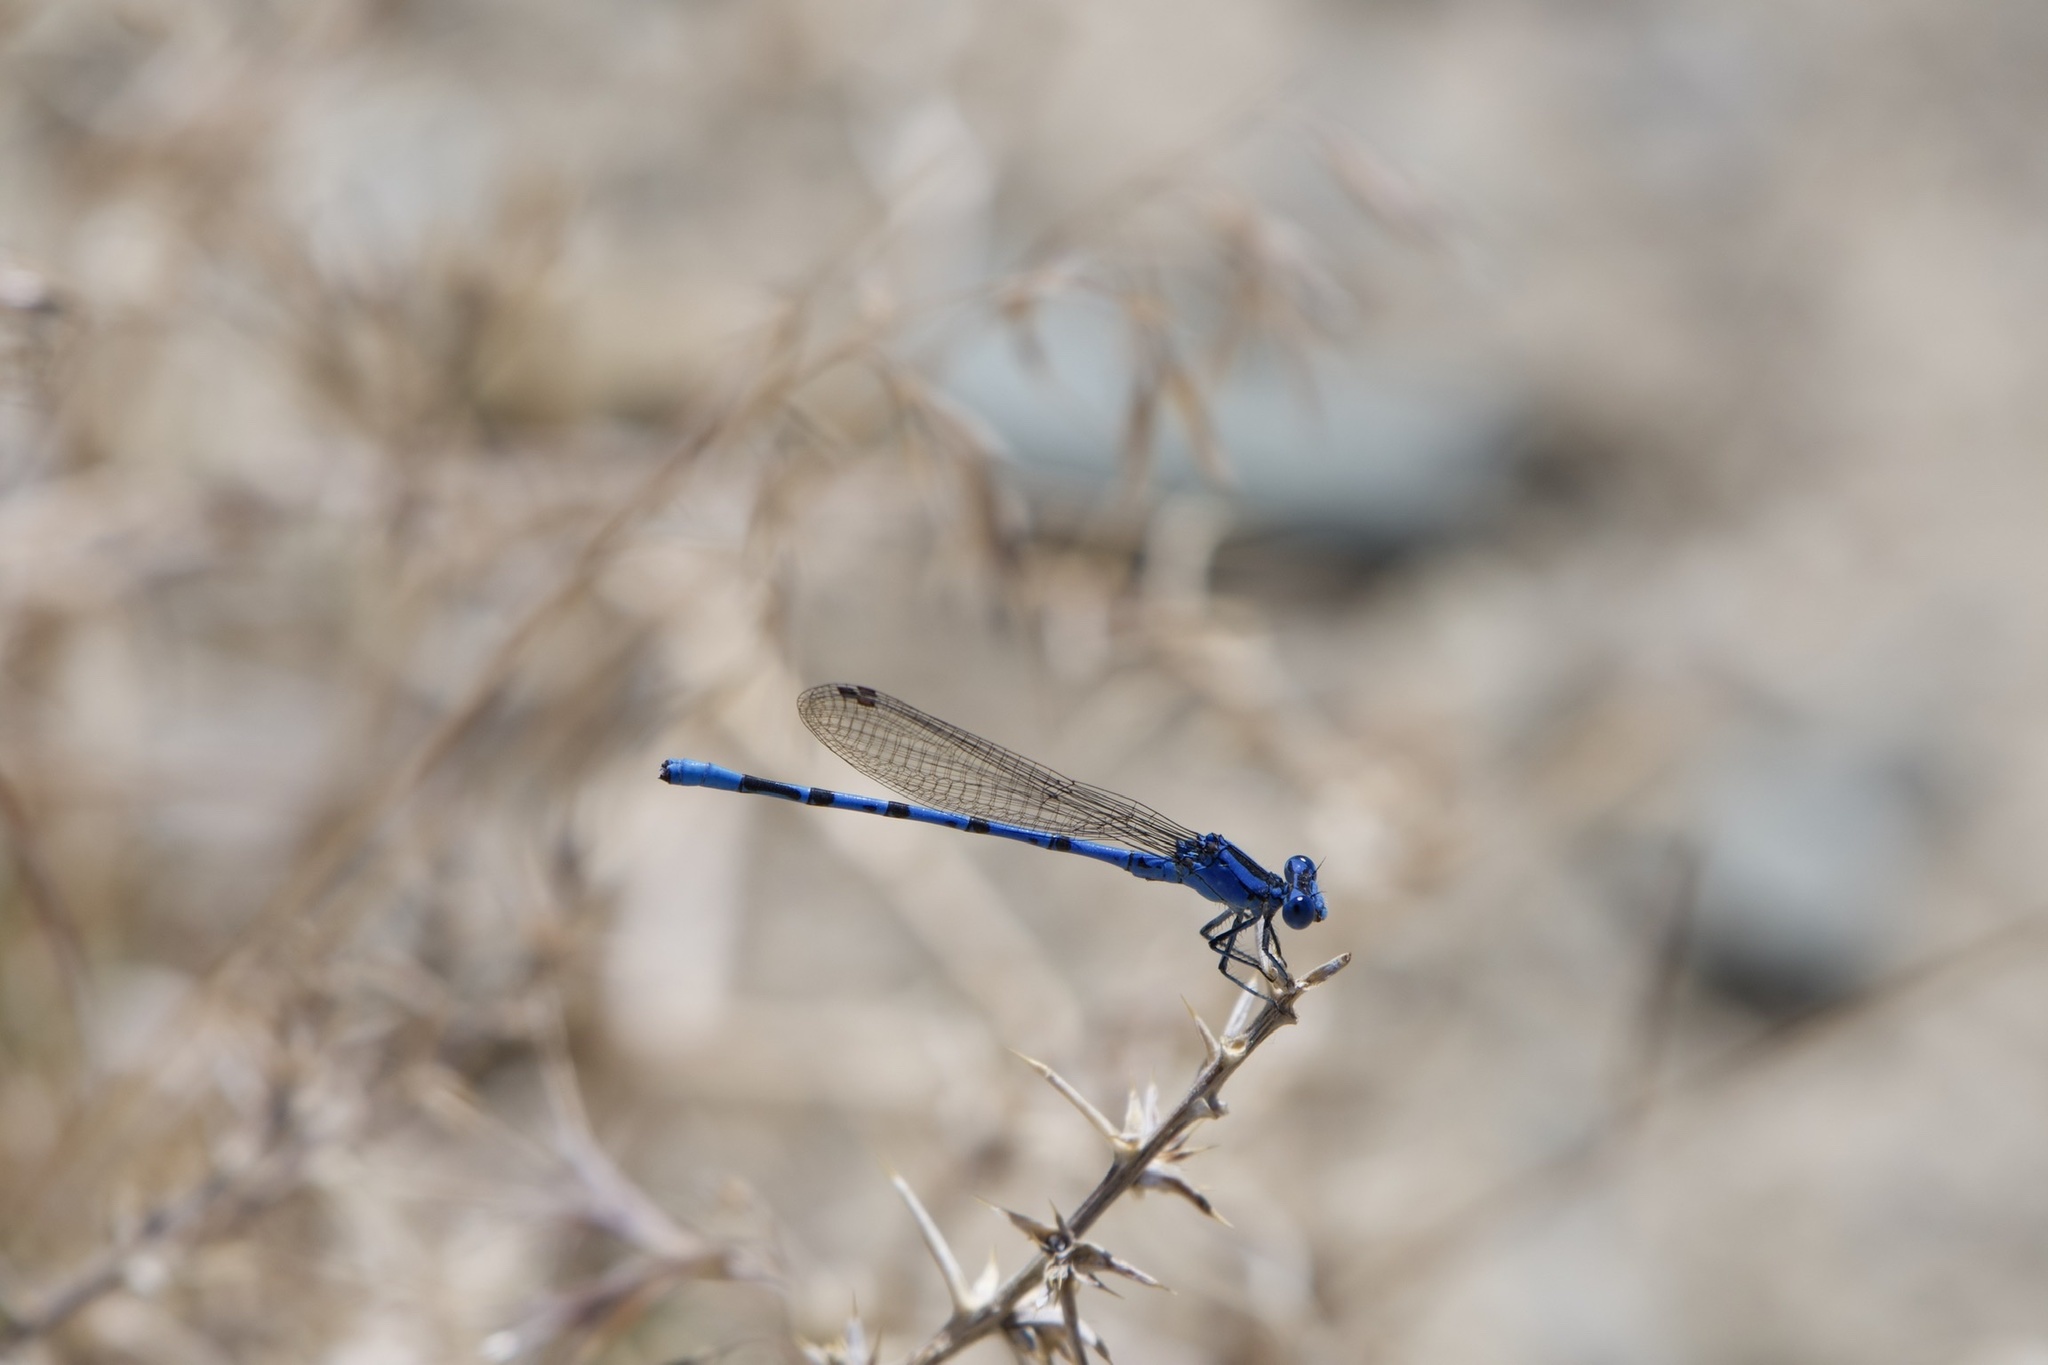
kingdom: Animalia
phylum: Arthropoda
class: Insecta
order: Odonata
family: Coenagrionidae
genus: Argia
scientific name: Argia vivida
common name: Vivid dancer
